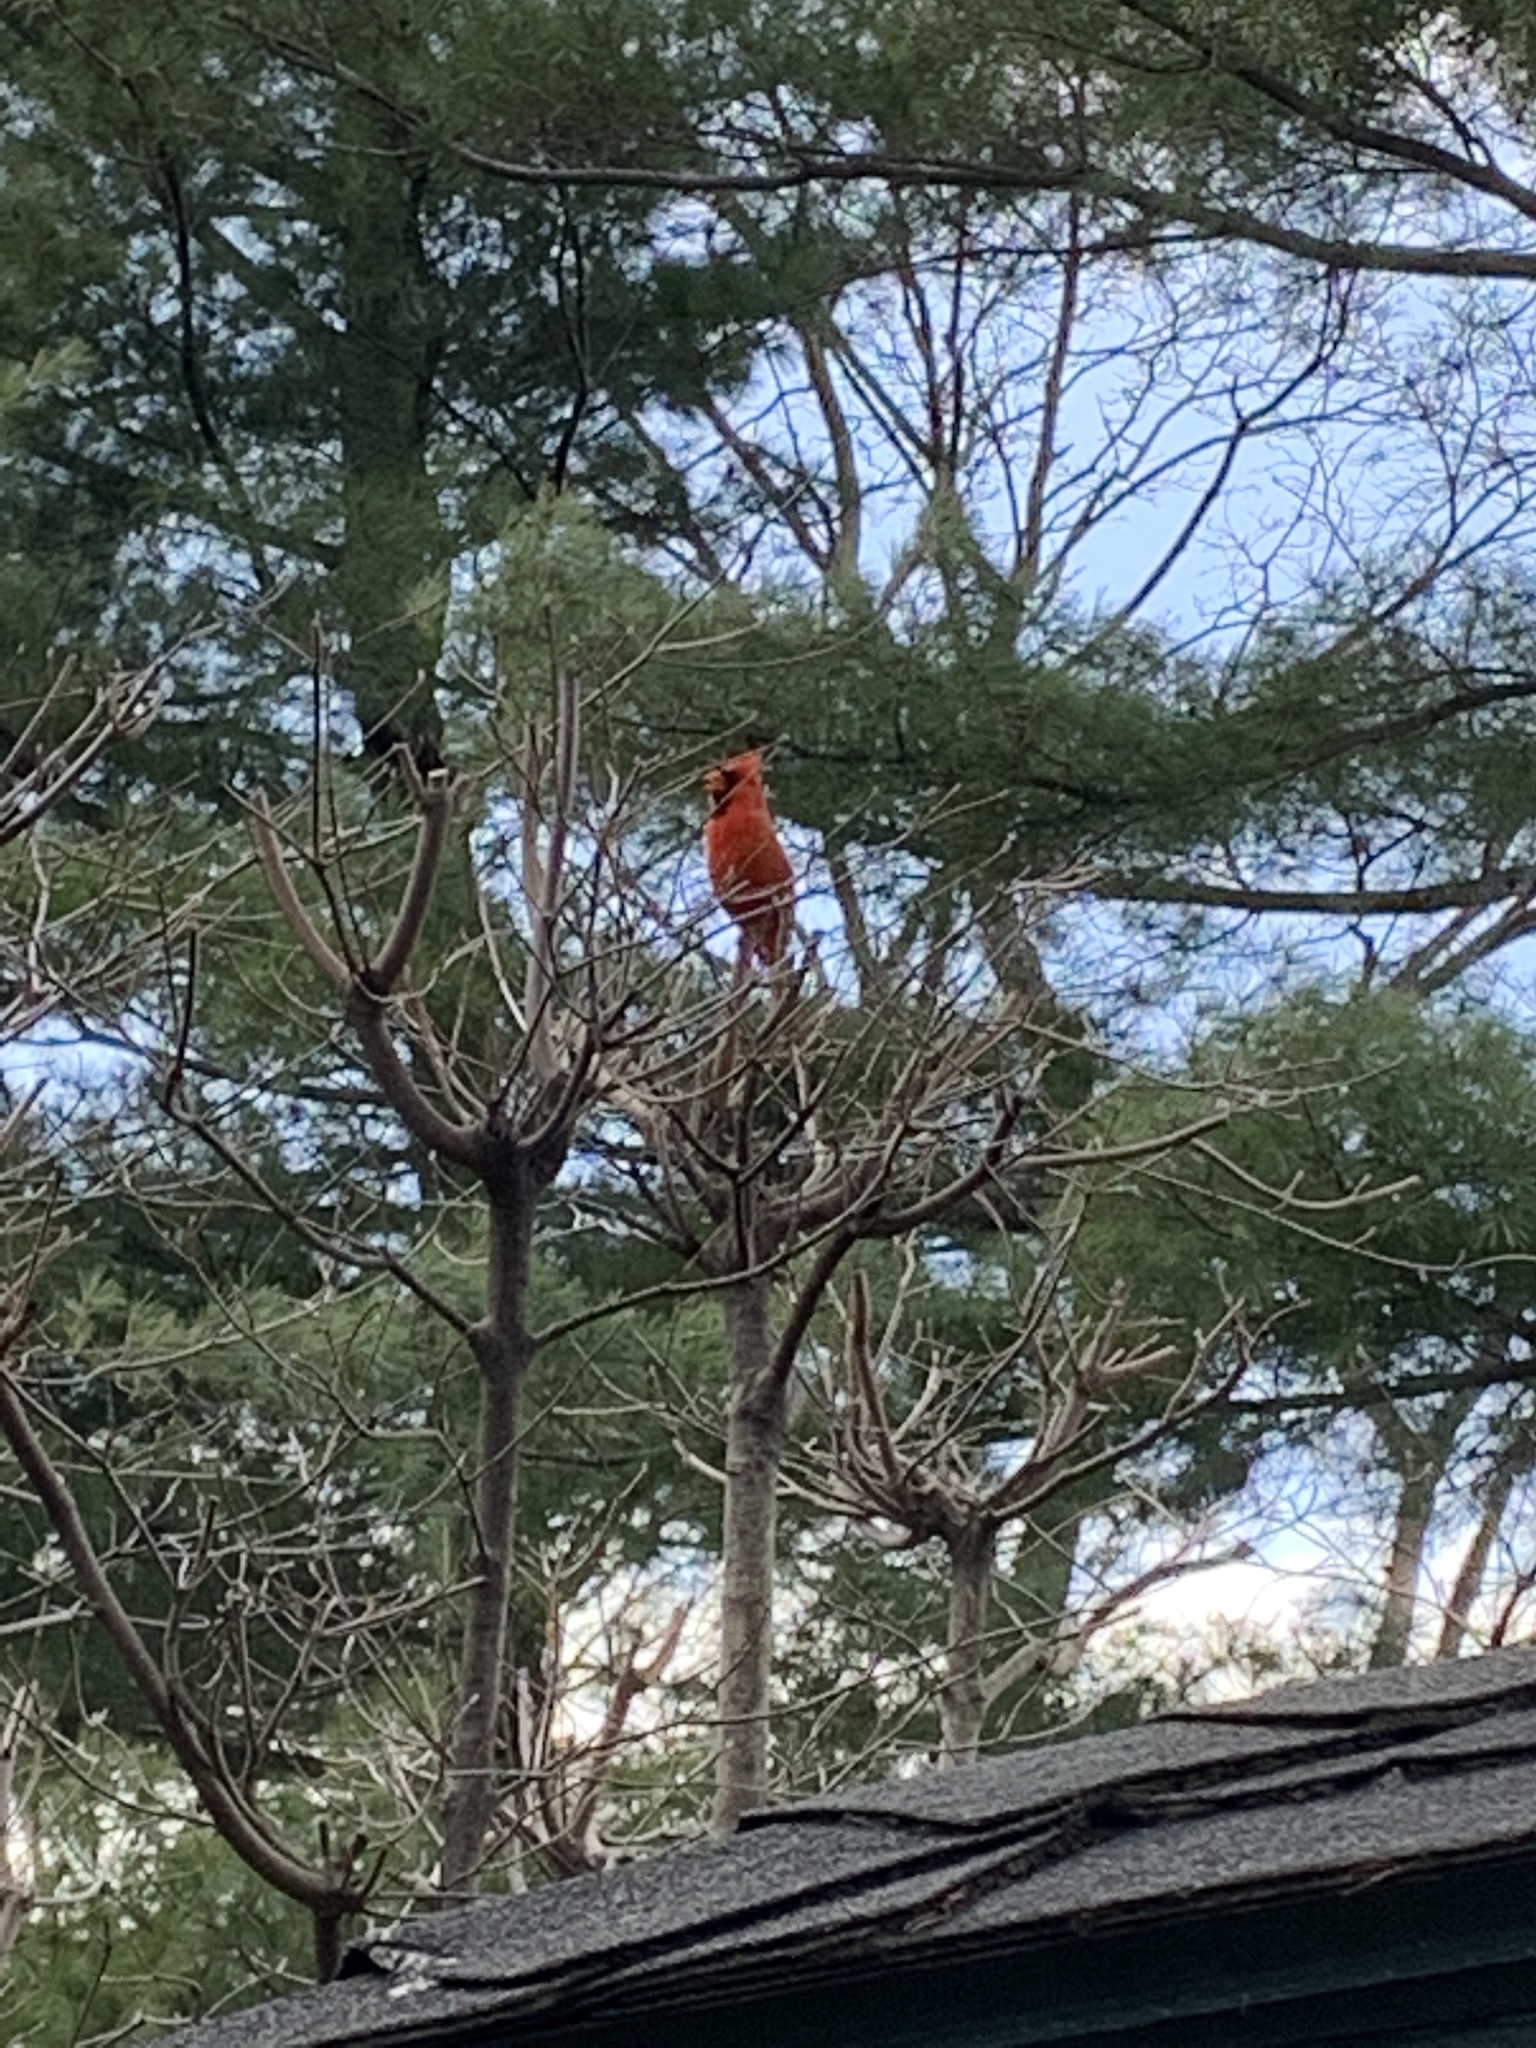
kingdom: Animalia
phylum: Chordata
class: Aves
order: Passeriformes
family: Cardinalidae
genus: Cardinalis
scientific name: Cardinalis cardinalis
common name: Northern cardinal
